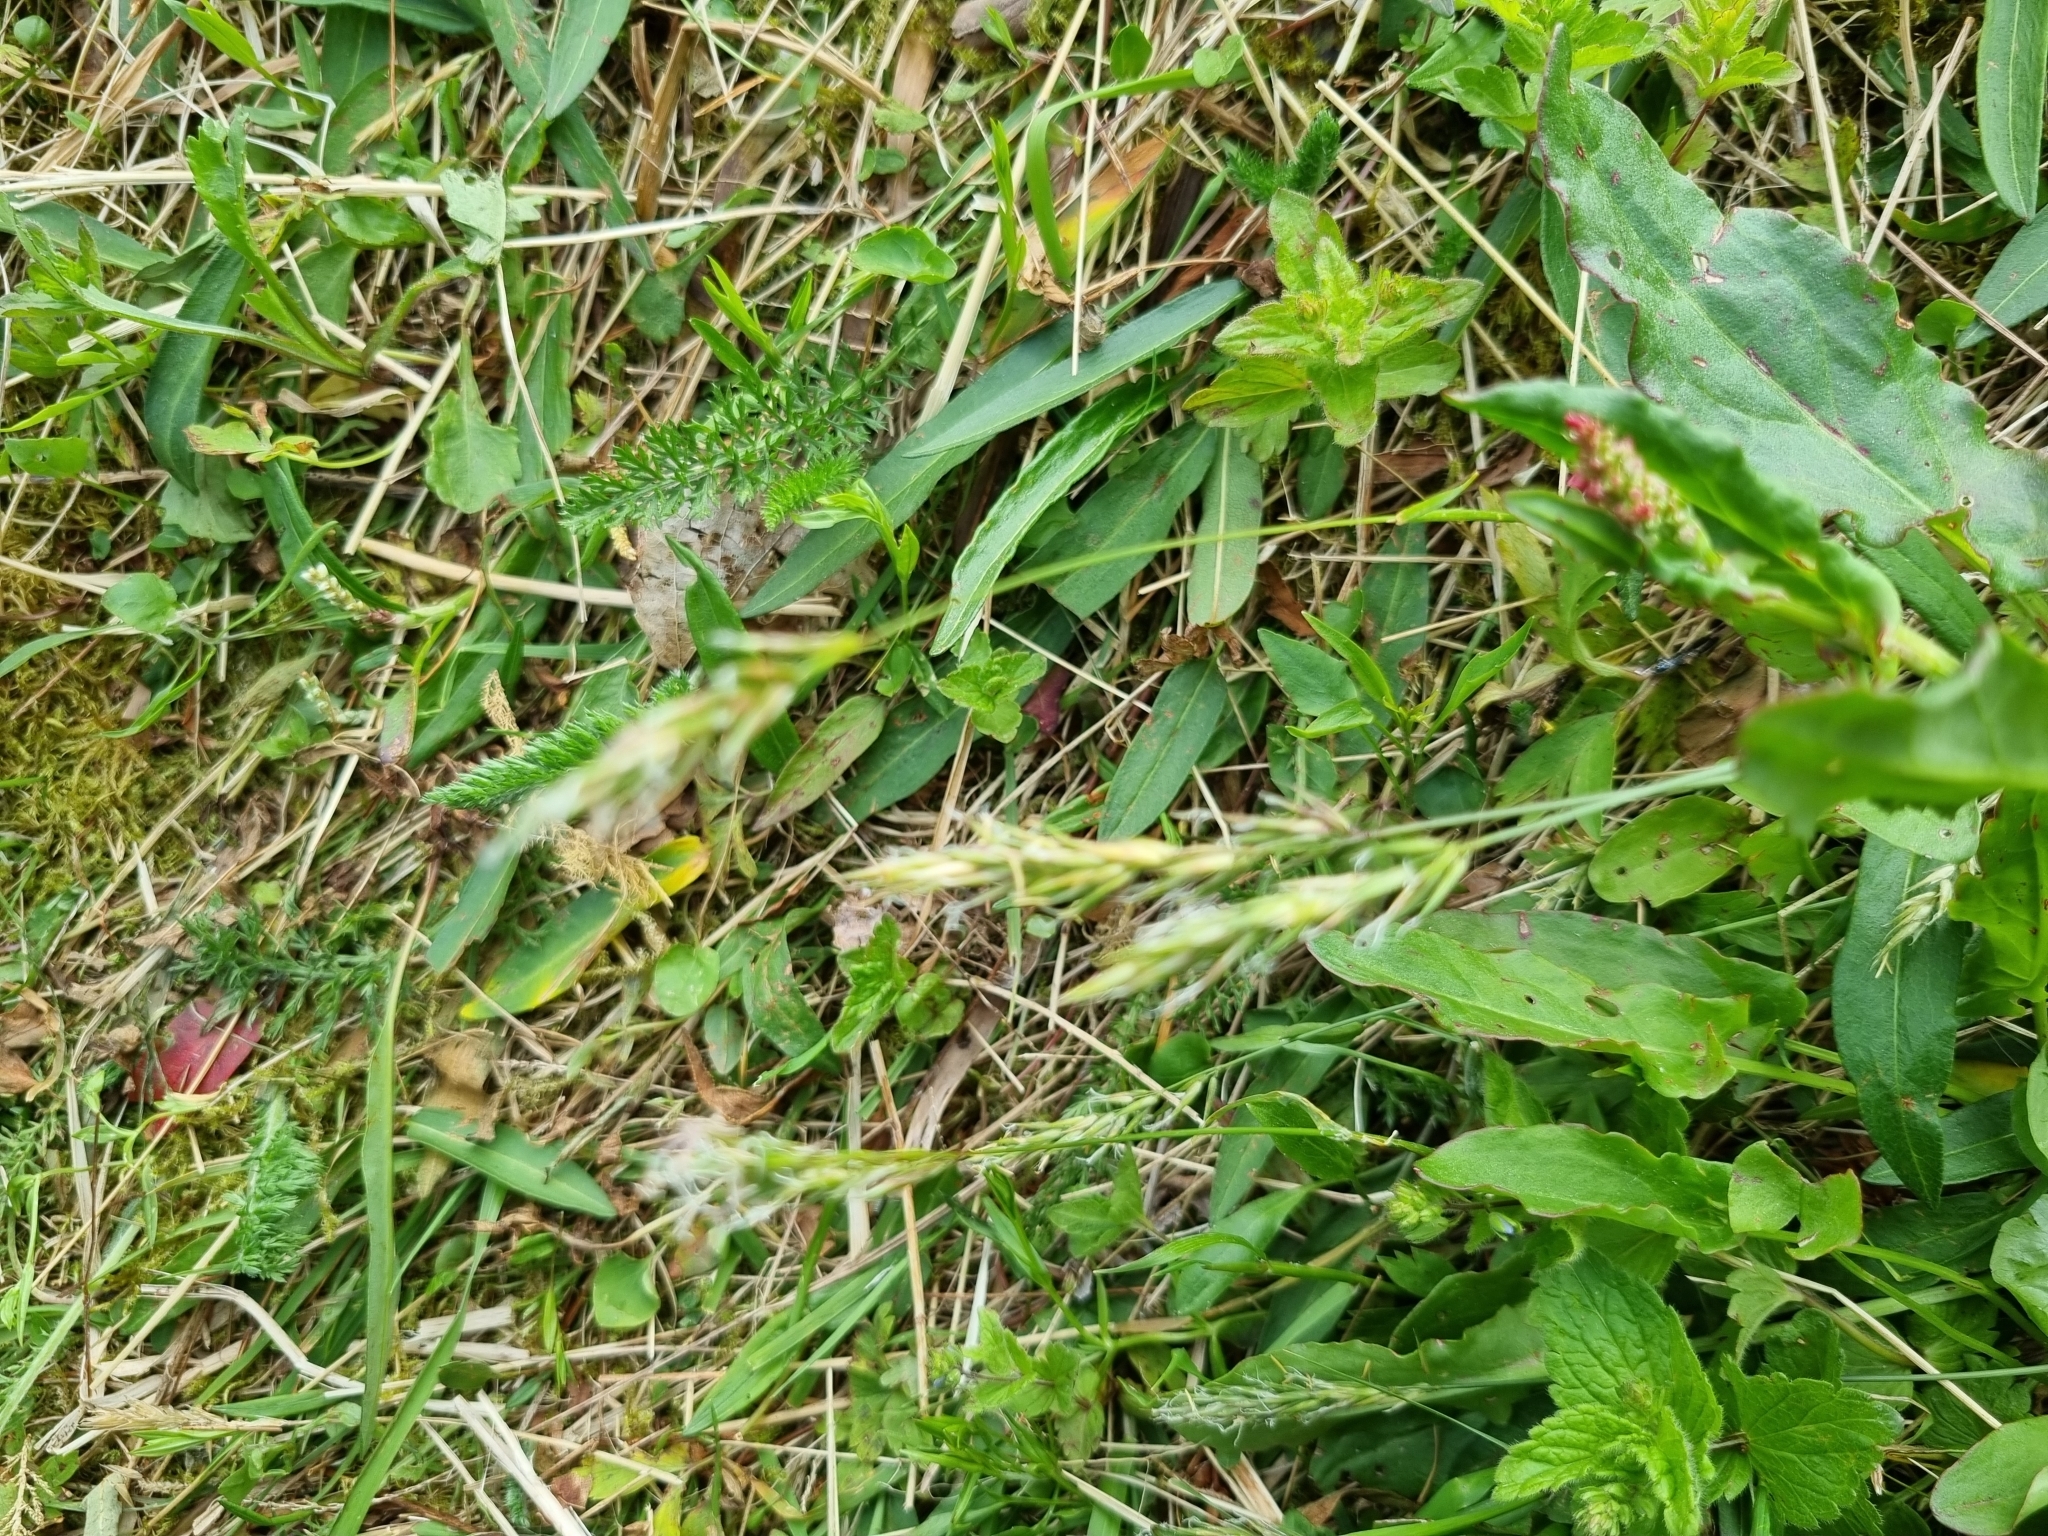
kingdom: Plantae
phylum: Tracheophyta
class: Liliopsida
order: Poales
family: Poaceae
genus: Anthoxanthum
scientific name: Anthoxanthum odoratum
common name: Sweet vernalgrass
